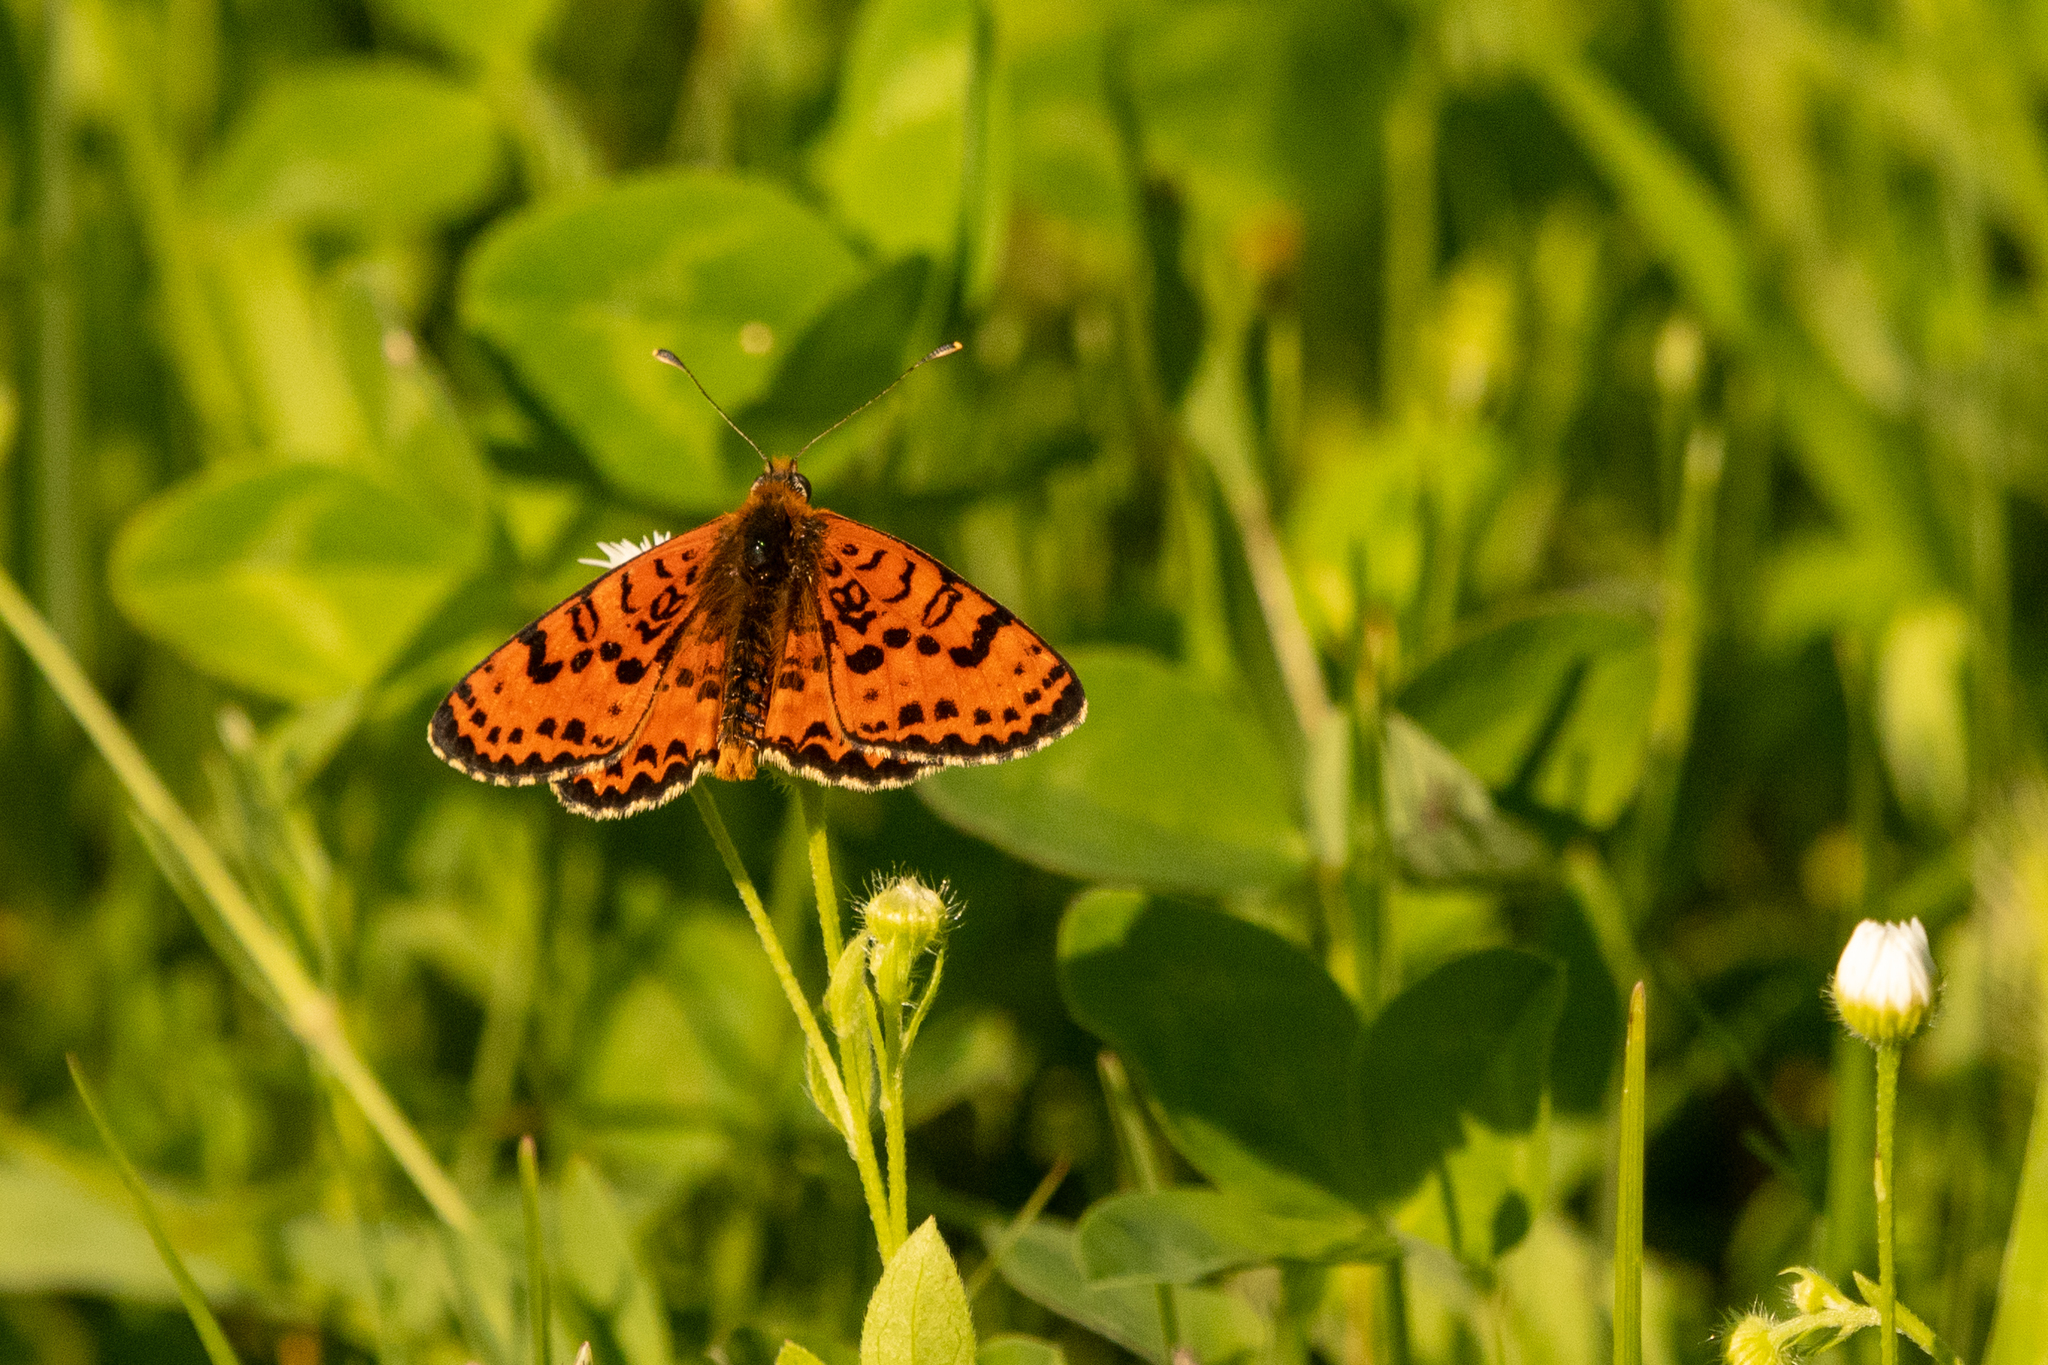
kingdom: Animalia
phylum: Arthropoda
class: Insecta
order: Lepidoptera
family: Nymphalidae
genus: Melitaea
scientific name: Melitaea didyma
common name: Spotted fritillary
